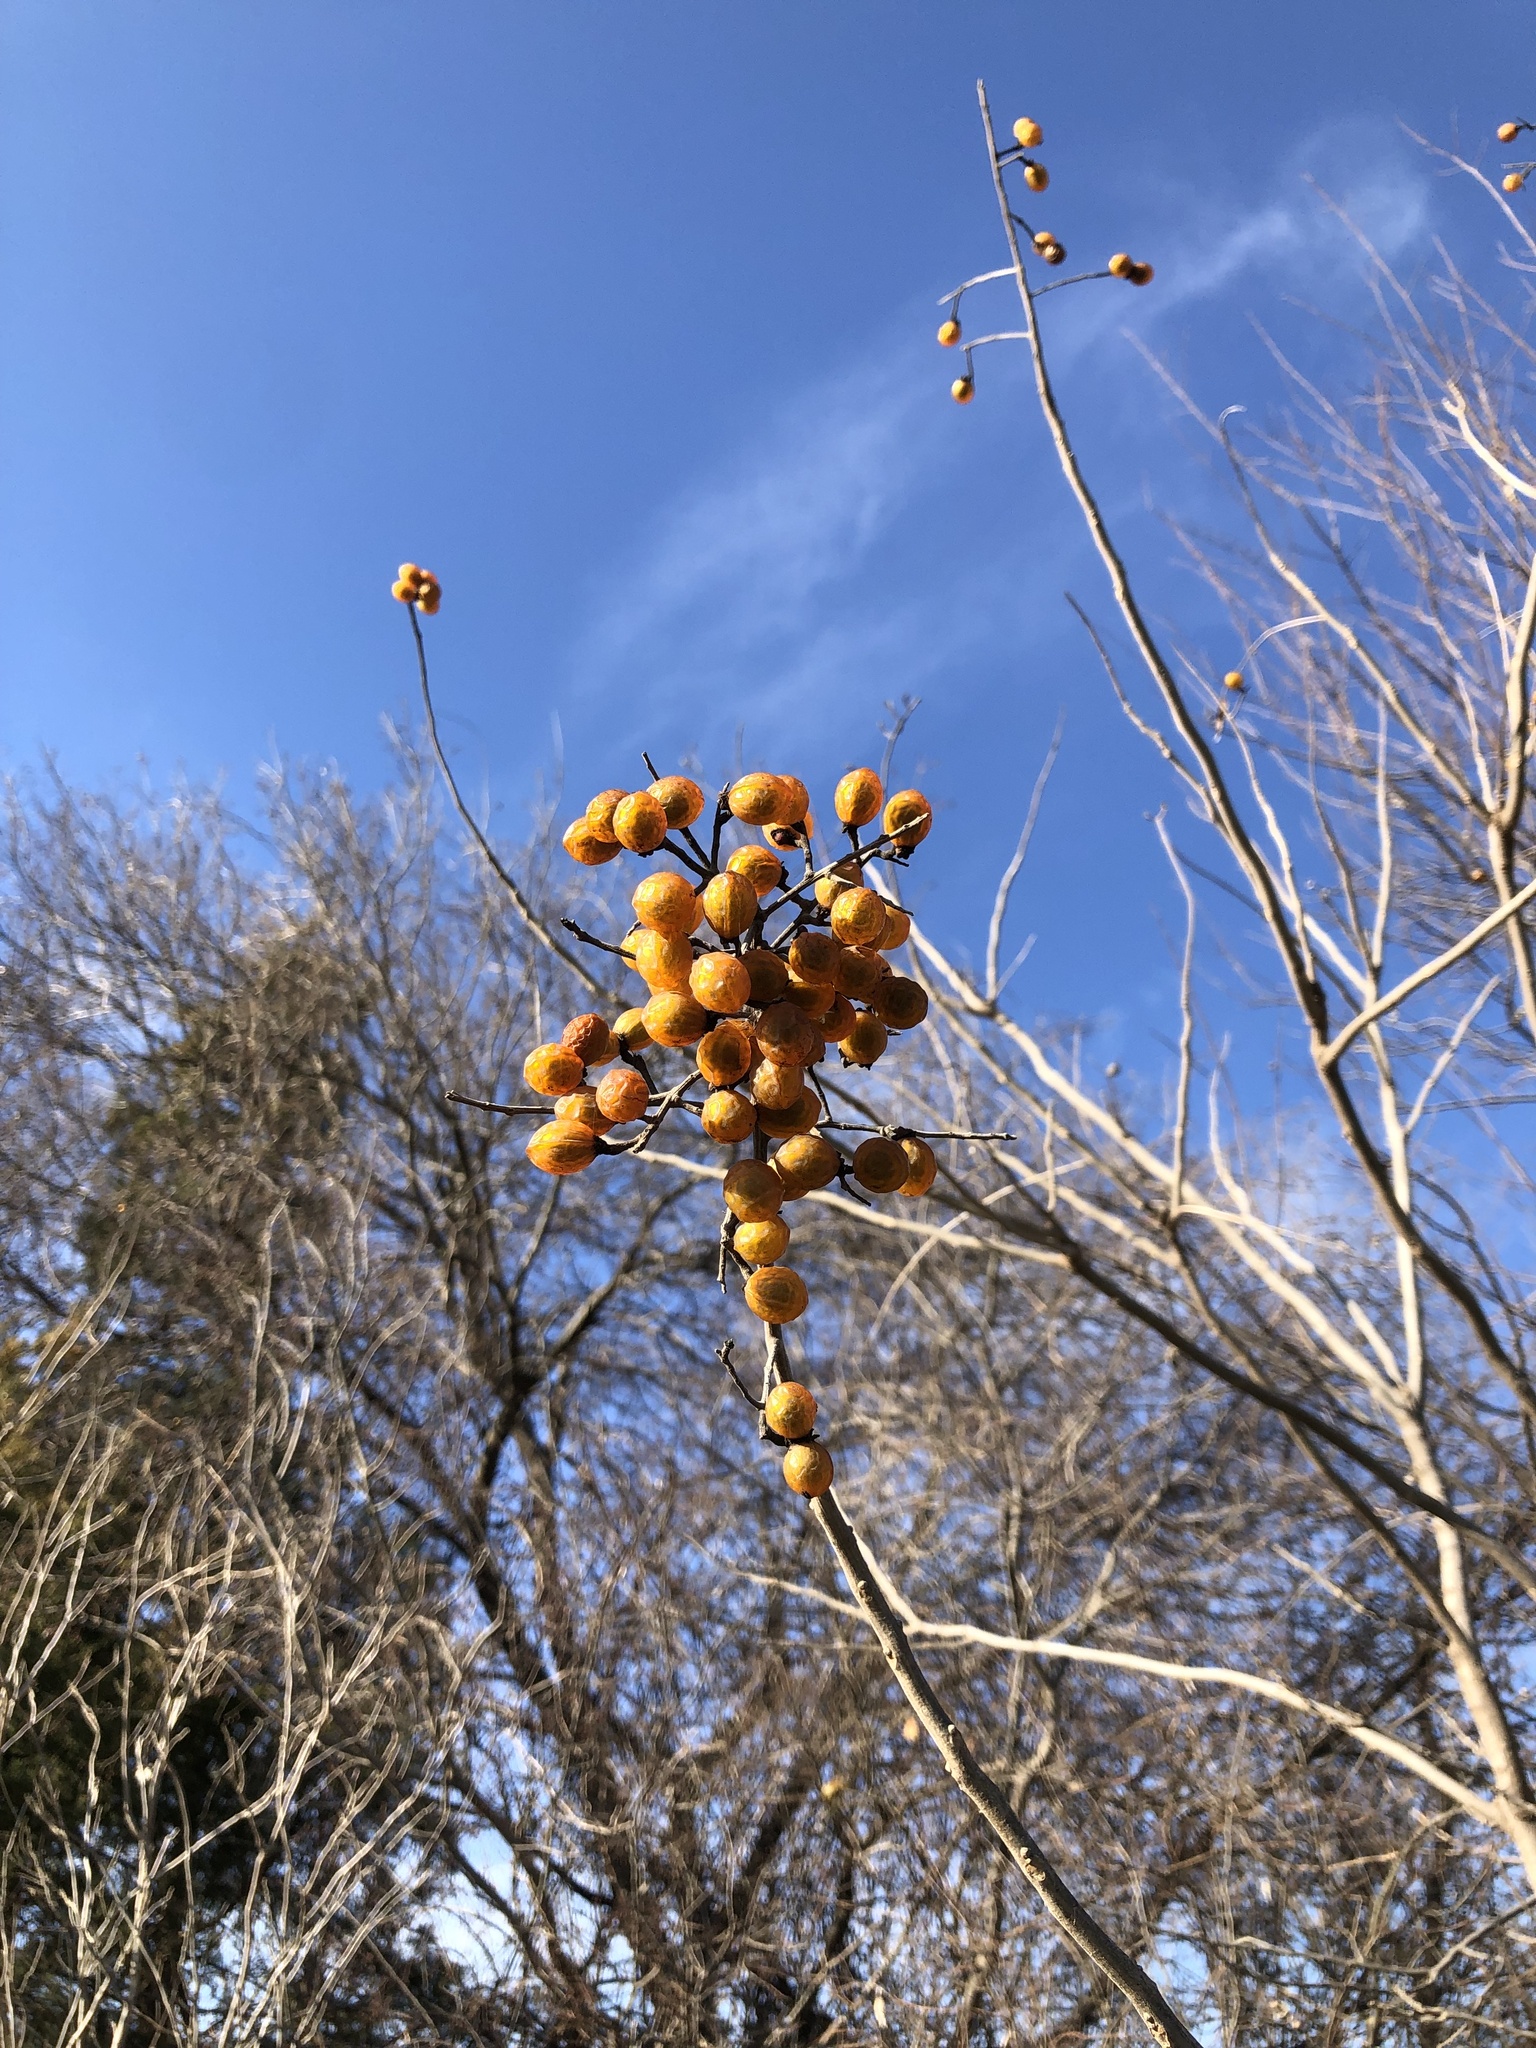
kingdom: Plantae
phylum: Tracheophyta
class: Magnoliopsida
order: Sapindales
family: Sapindaceae
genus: Sapindus
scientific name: Sapindus drummondii
